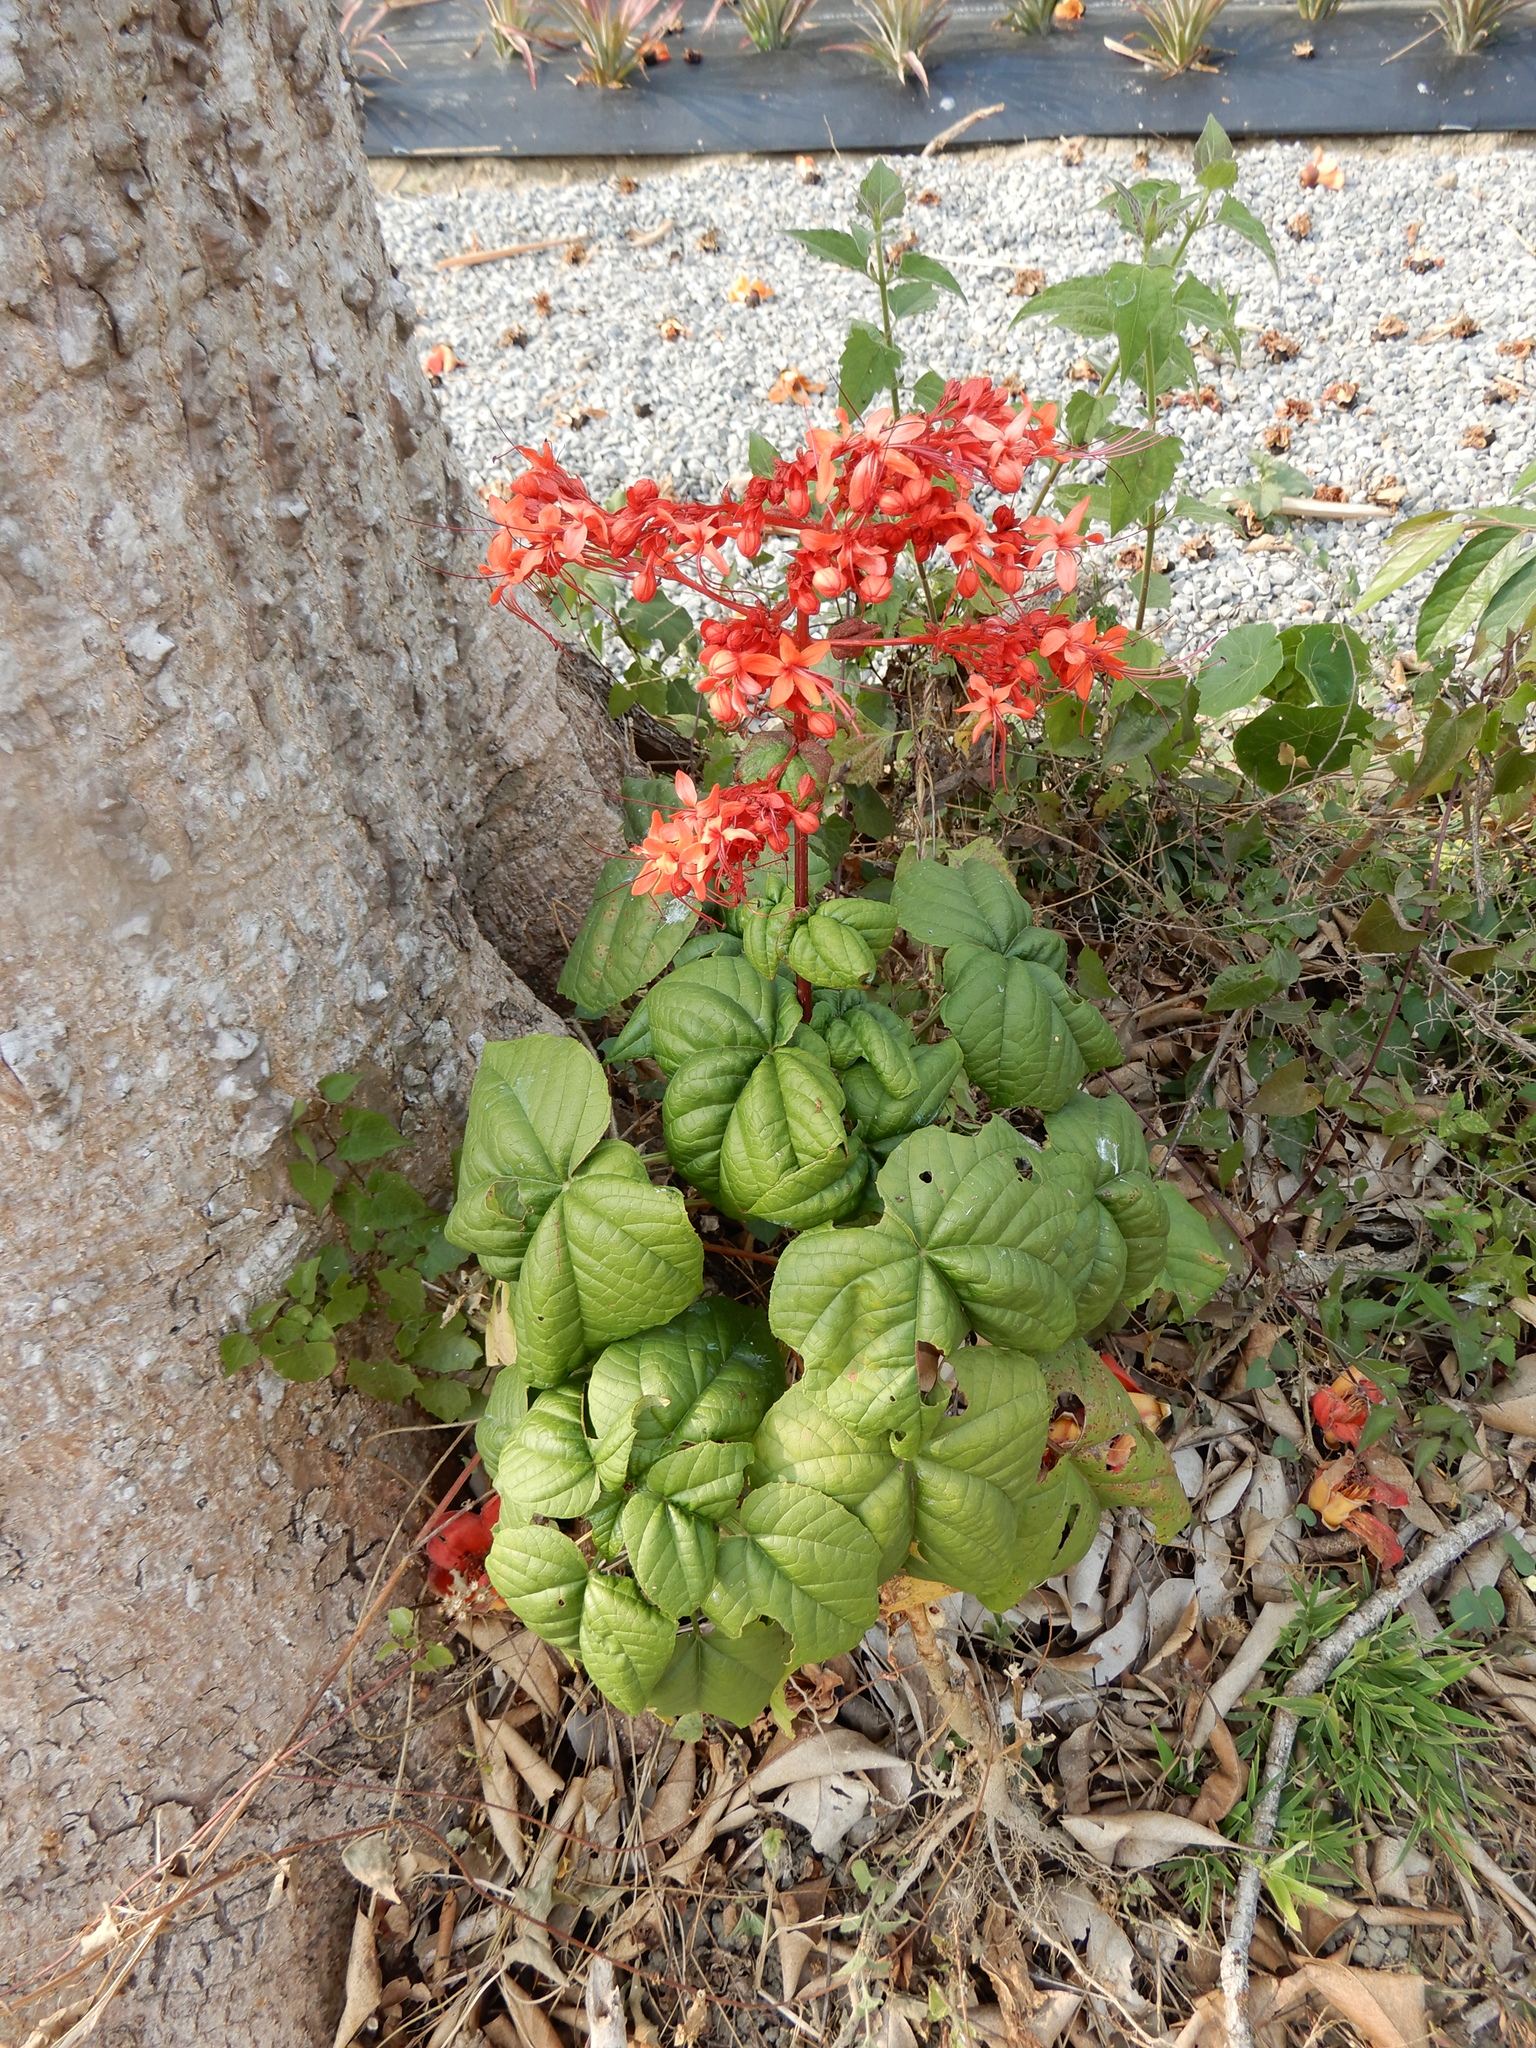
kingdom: Plantae
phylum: Tracheophyta
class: Magnoliopsida
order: Lamiales
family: Lamiaceae
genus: Clerodendrum
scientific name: Clerodendrum japonicum
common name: Japanese glorybower
